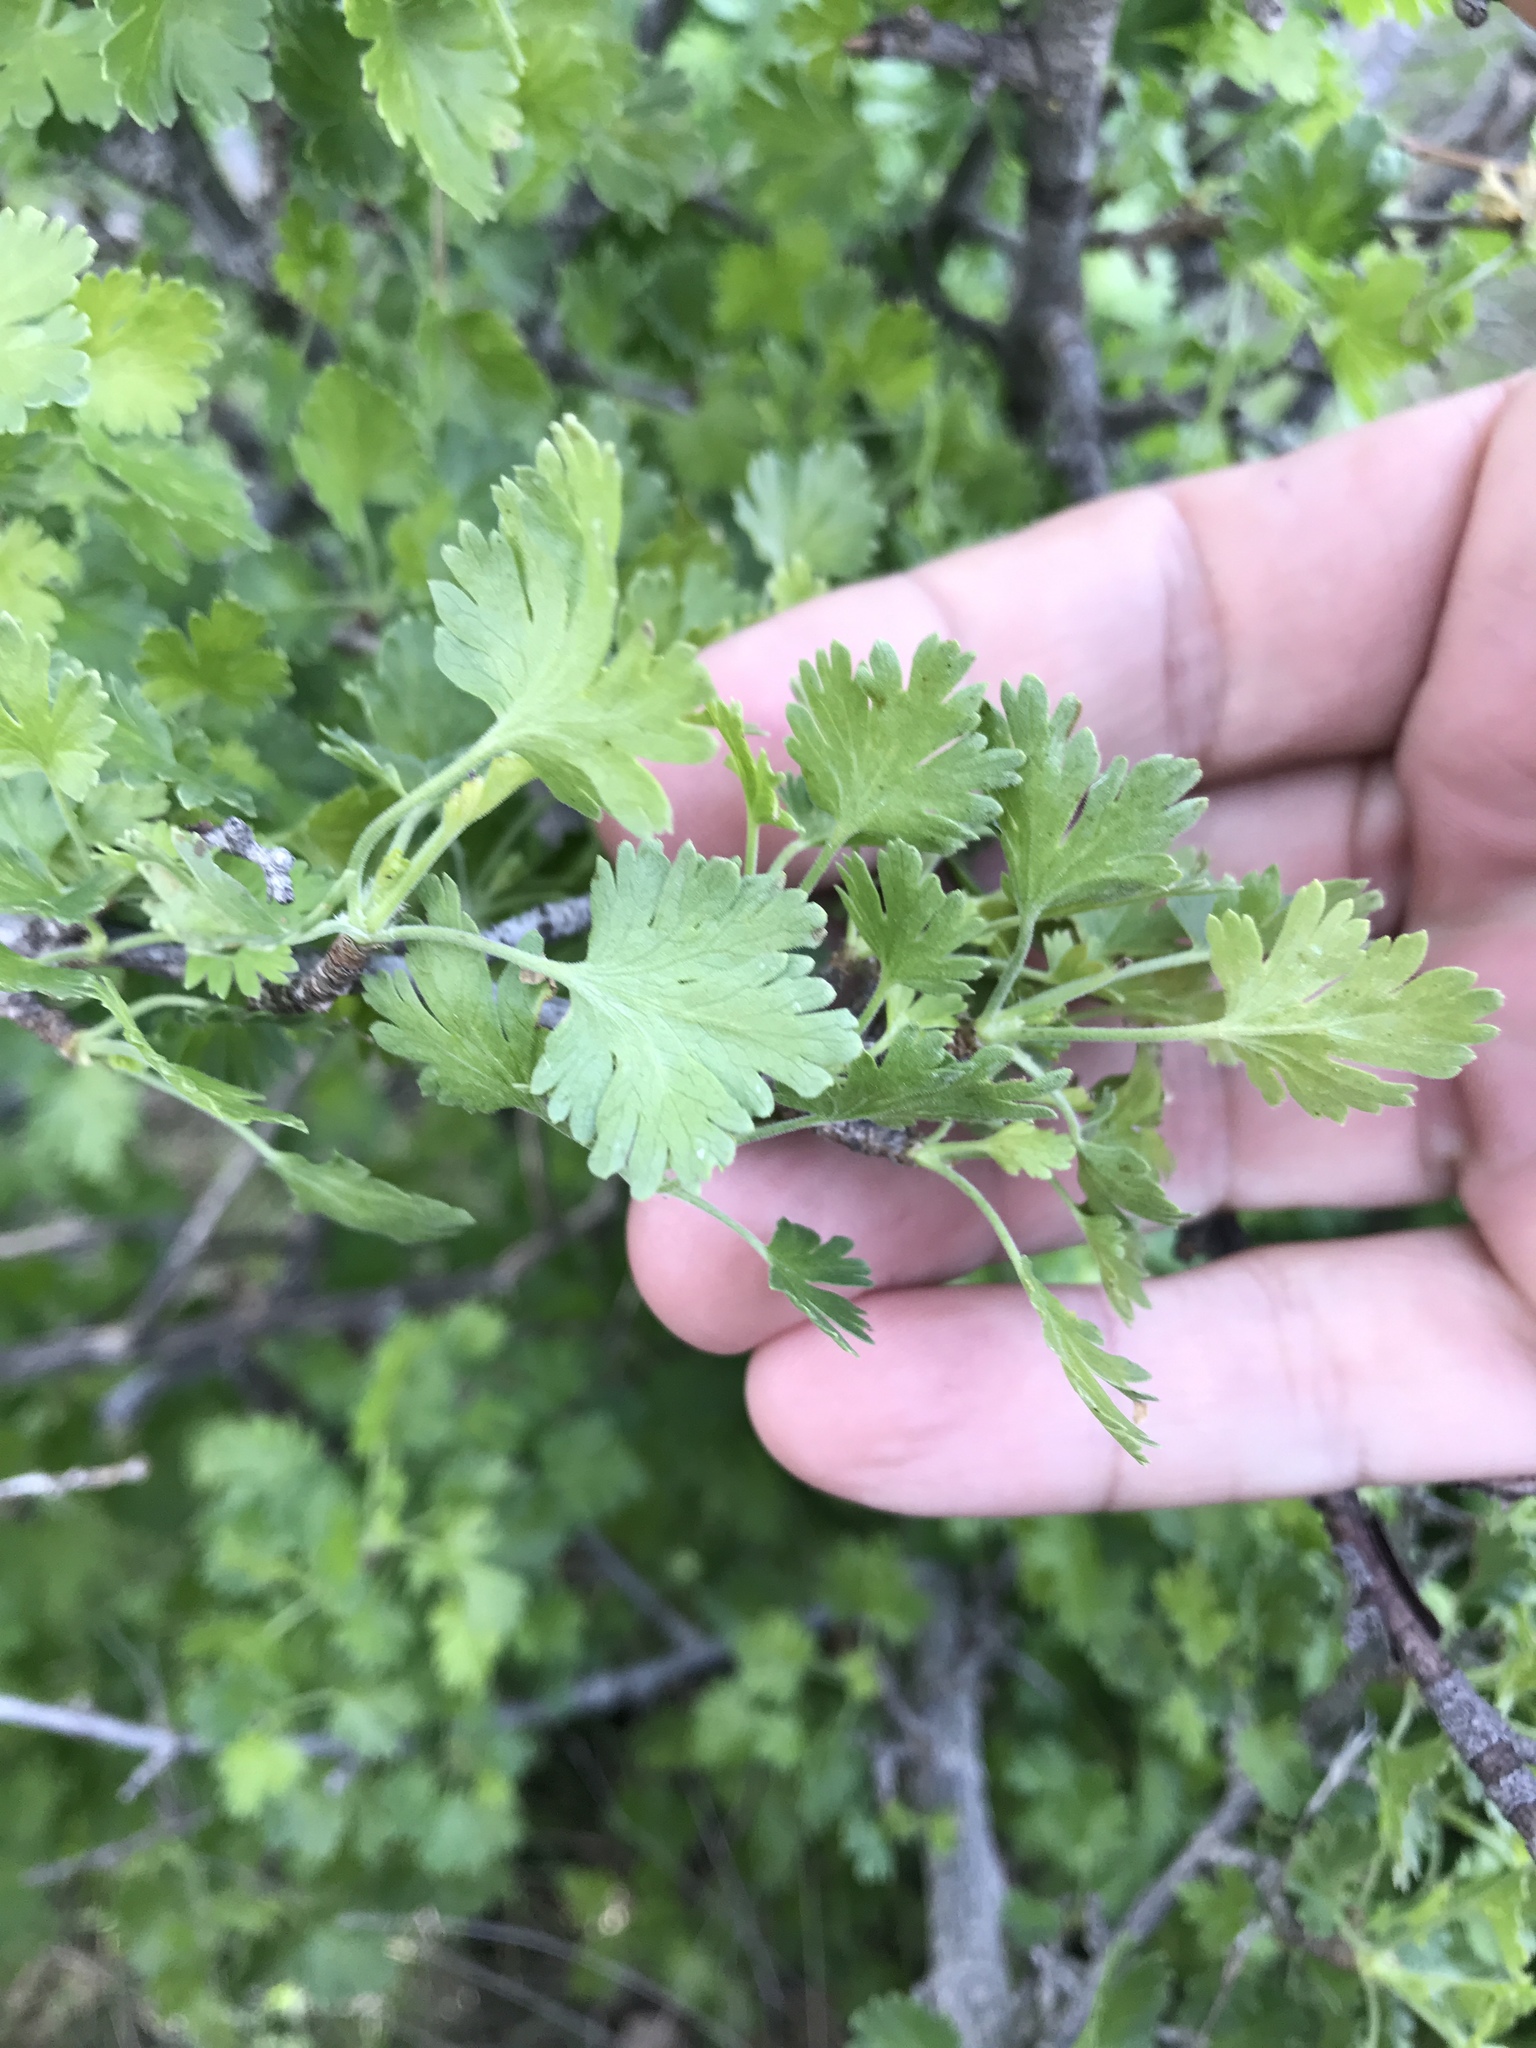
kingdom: Plantae
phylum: Tracheophyta
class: Magnoliopsida
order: Saxifragales
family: Grossulariaceae
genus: Ribes
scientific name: Ribes quercetorum
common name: Oak gooseberry
